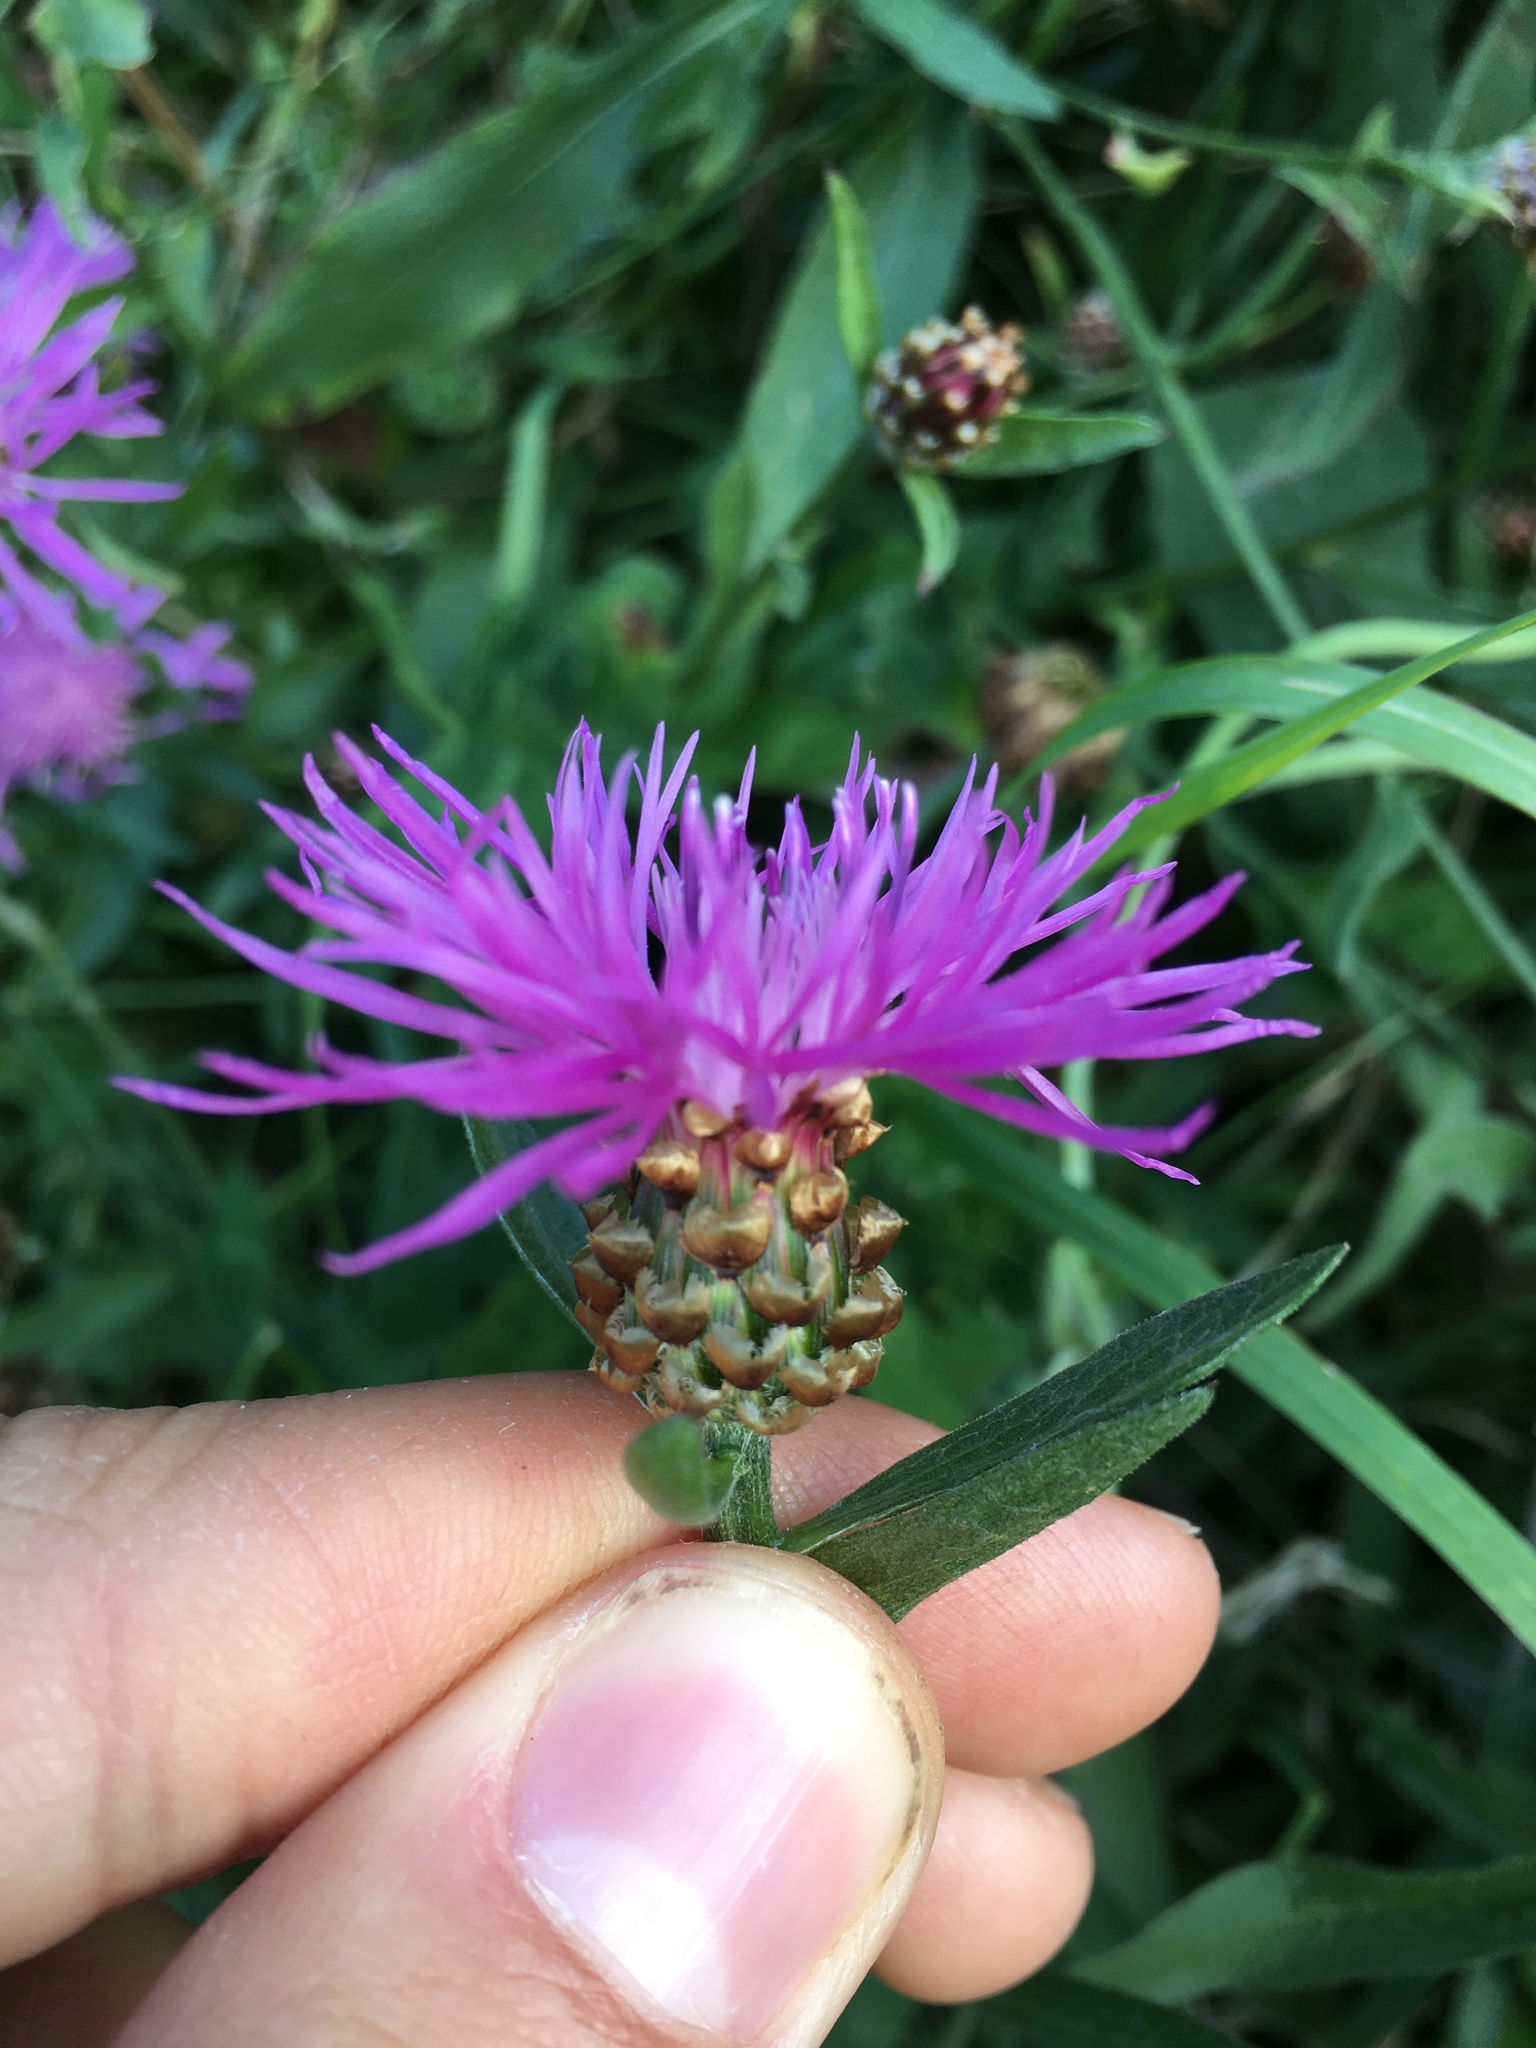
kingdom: Plantae
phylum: Tracheophyta
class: Magnoliopsida
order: Asterales
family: Asteraceae
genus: Centaurea
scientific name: Centaurea jacea
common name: Brown knapweed
